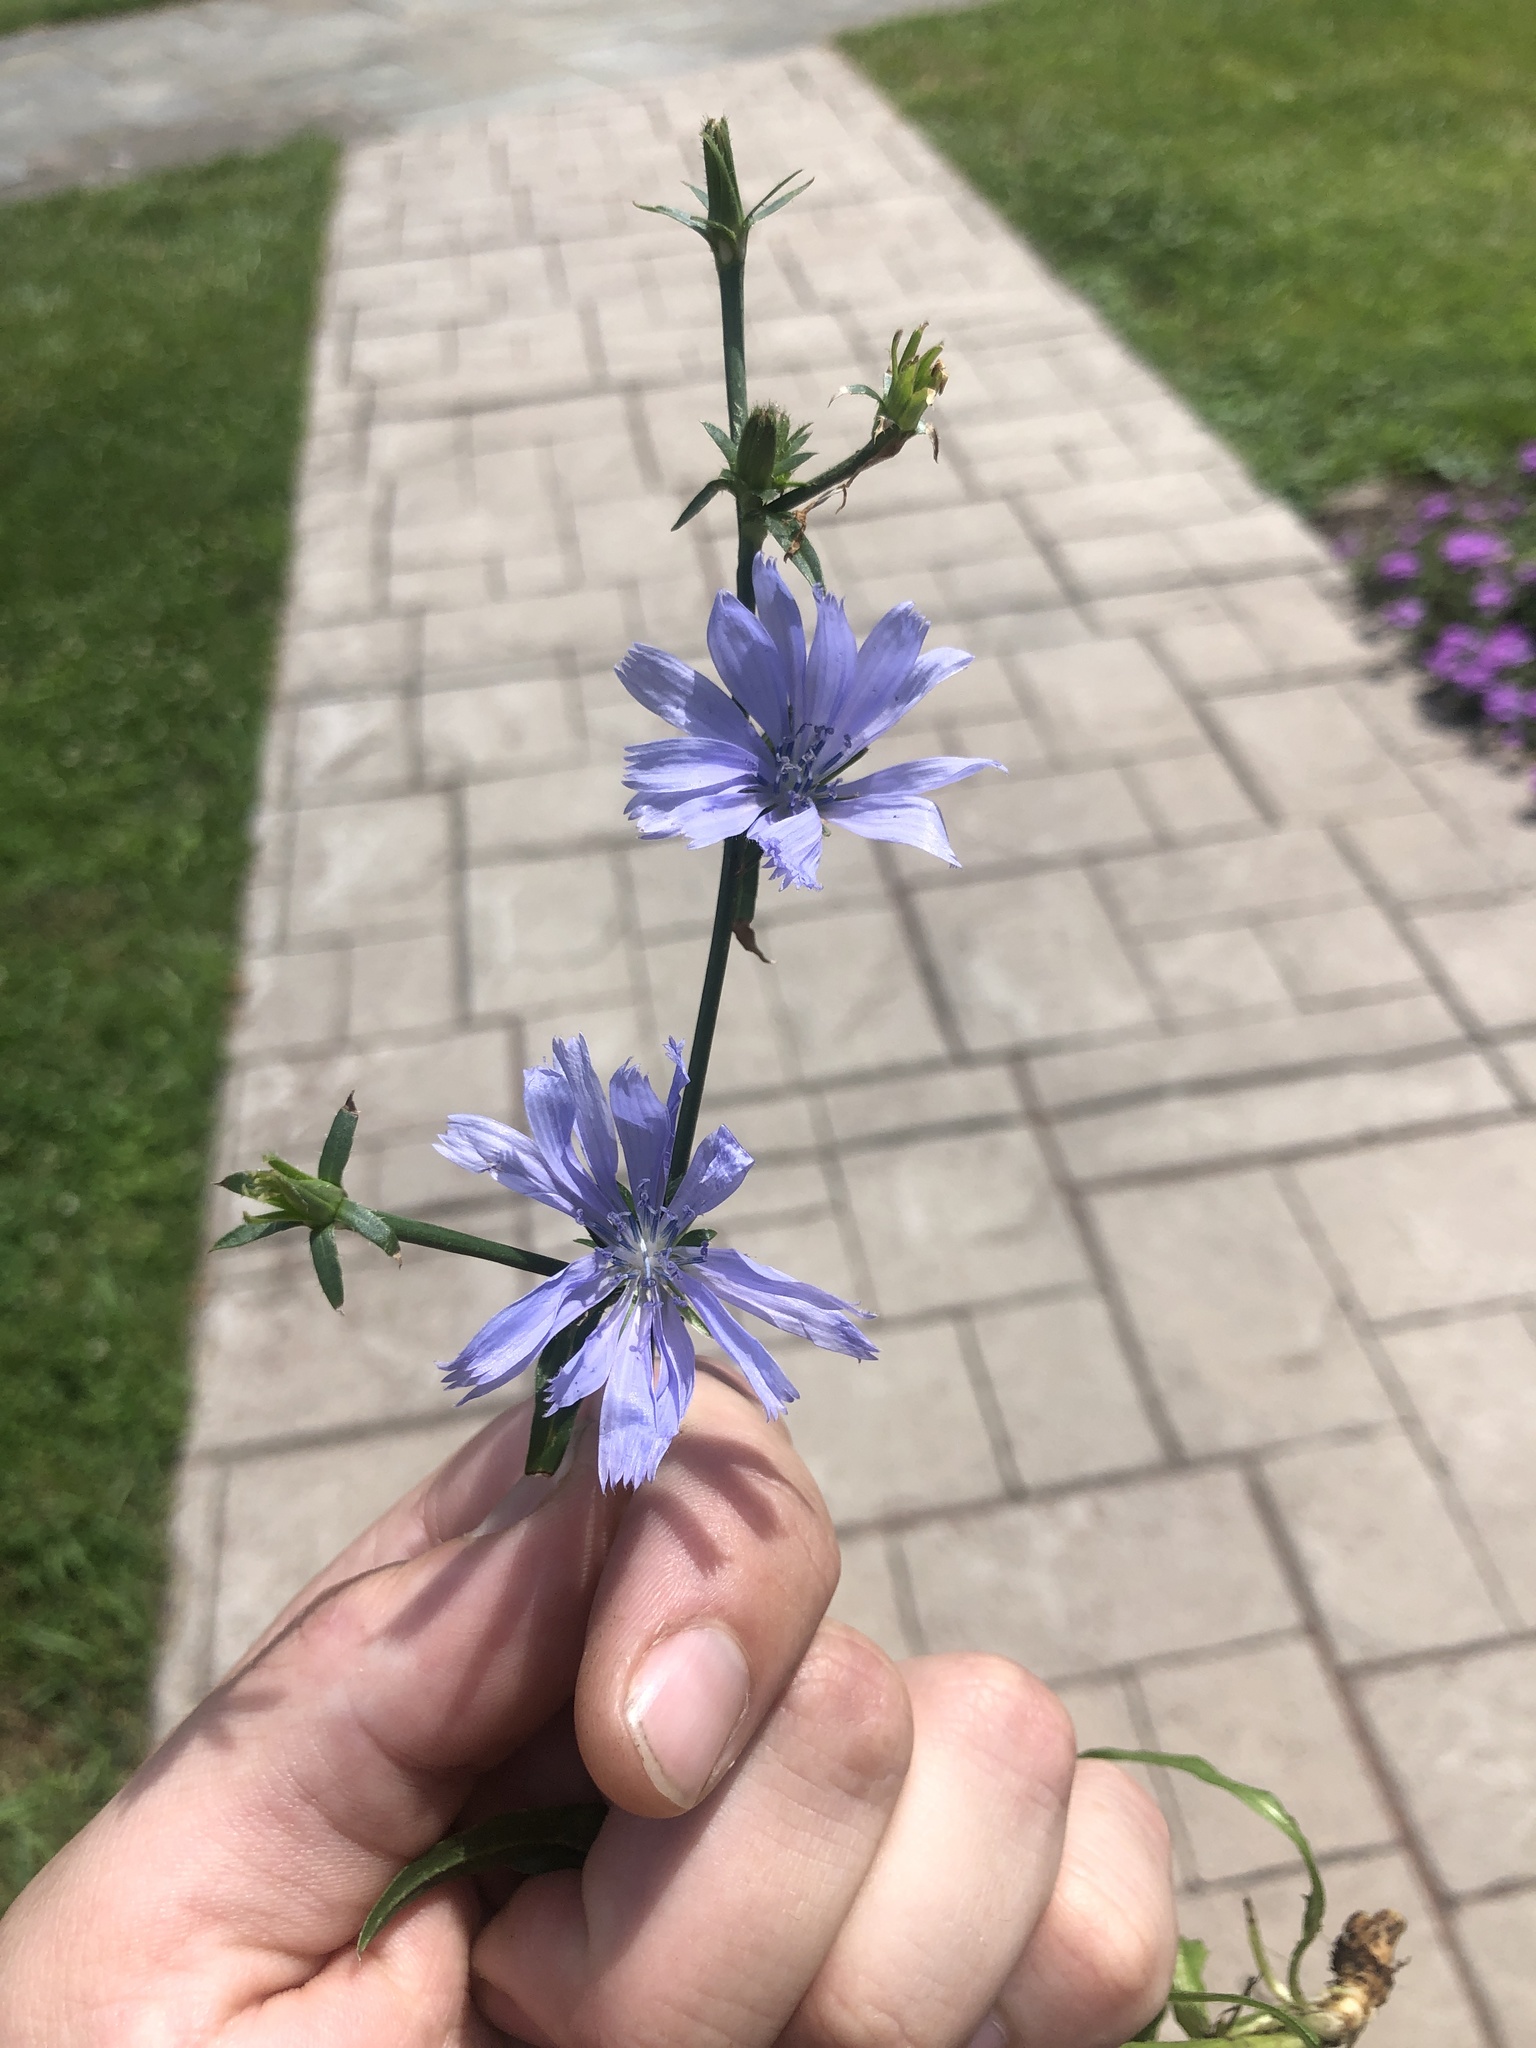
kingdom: Plantae
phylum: Tracheophyta
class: Magnoliopsida
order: Asterales
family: Asteraceae
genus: Cichorium
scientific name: Cichorium intybus
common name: Chicory
